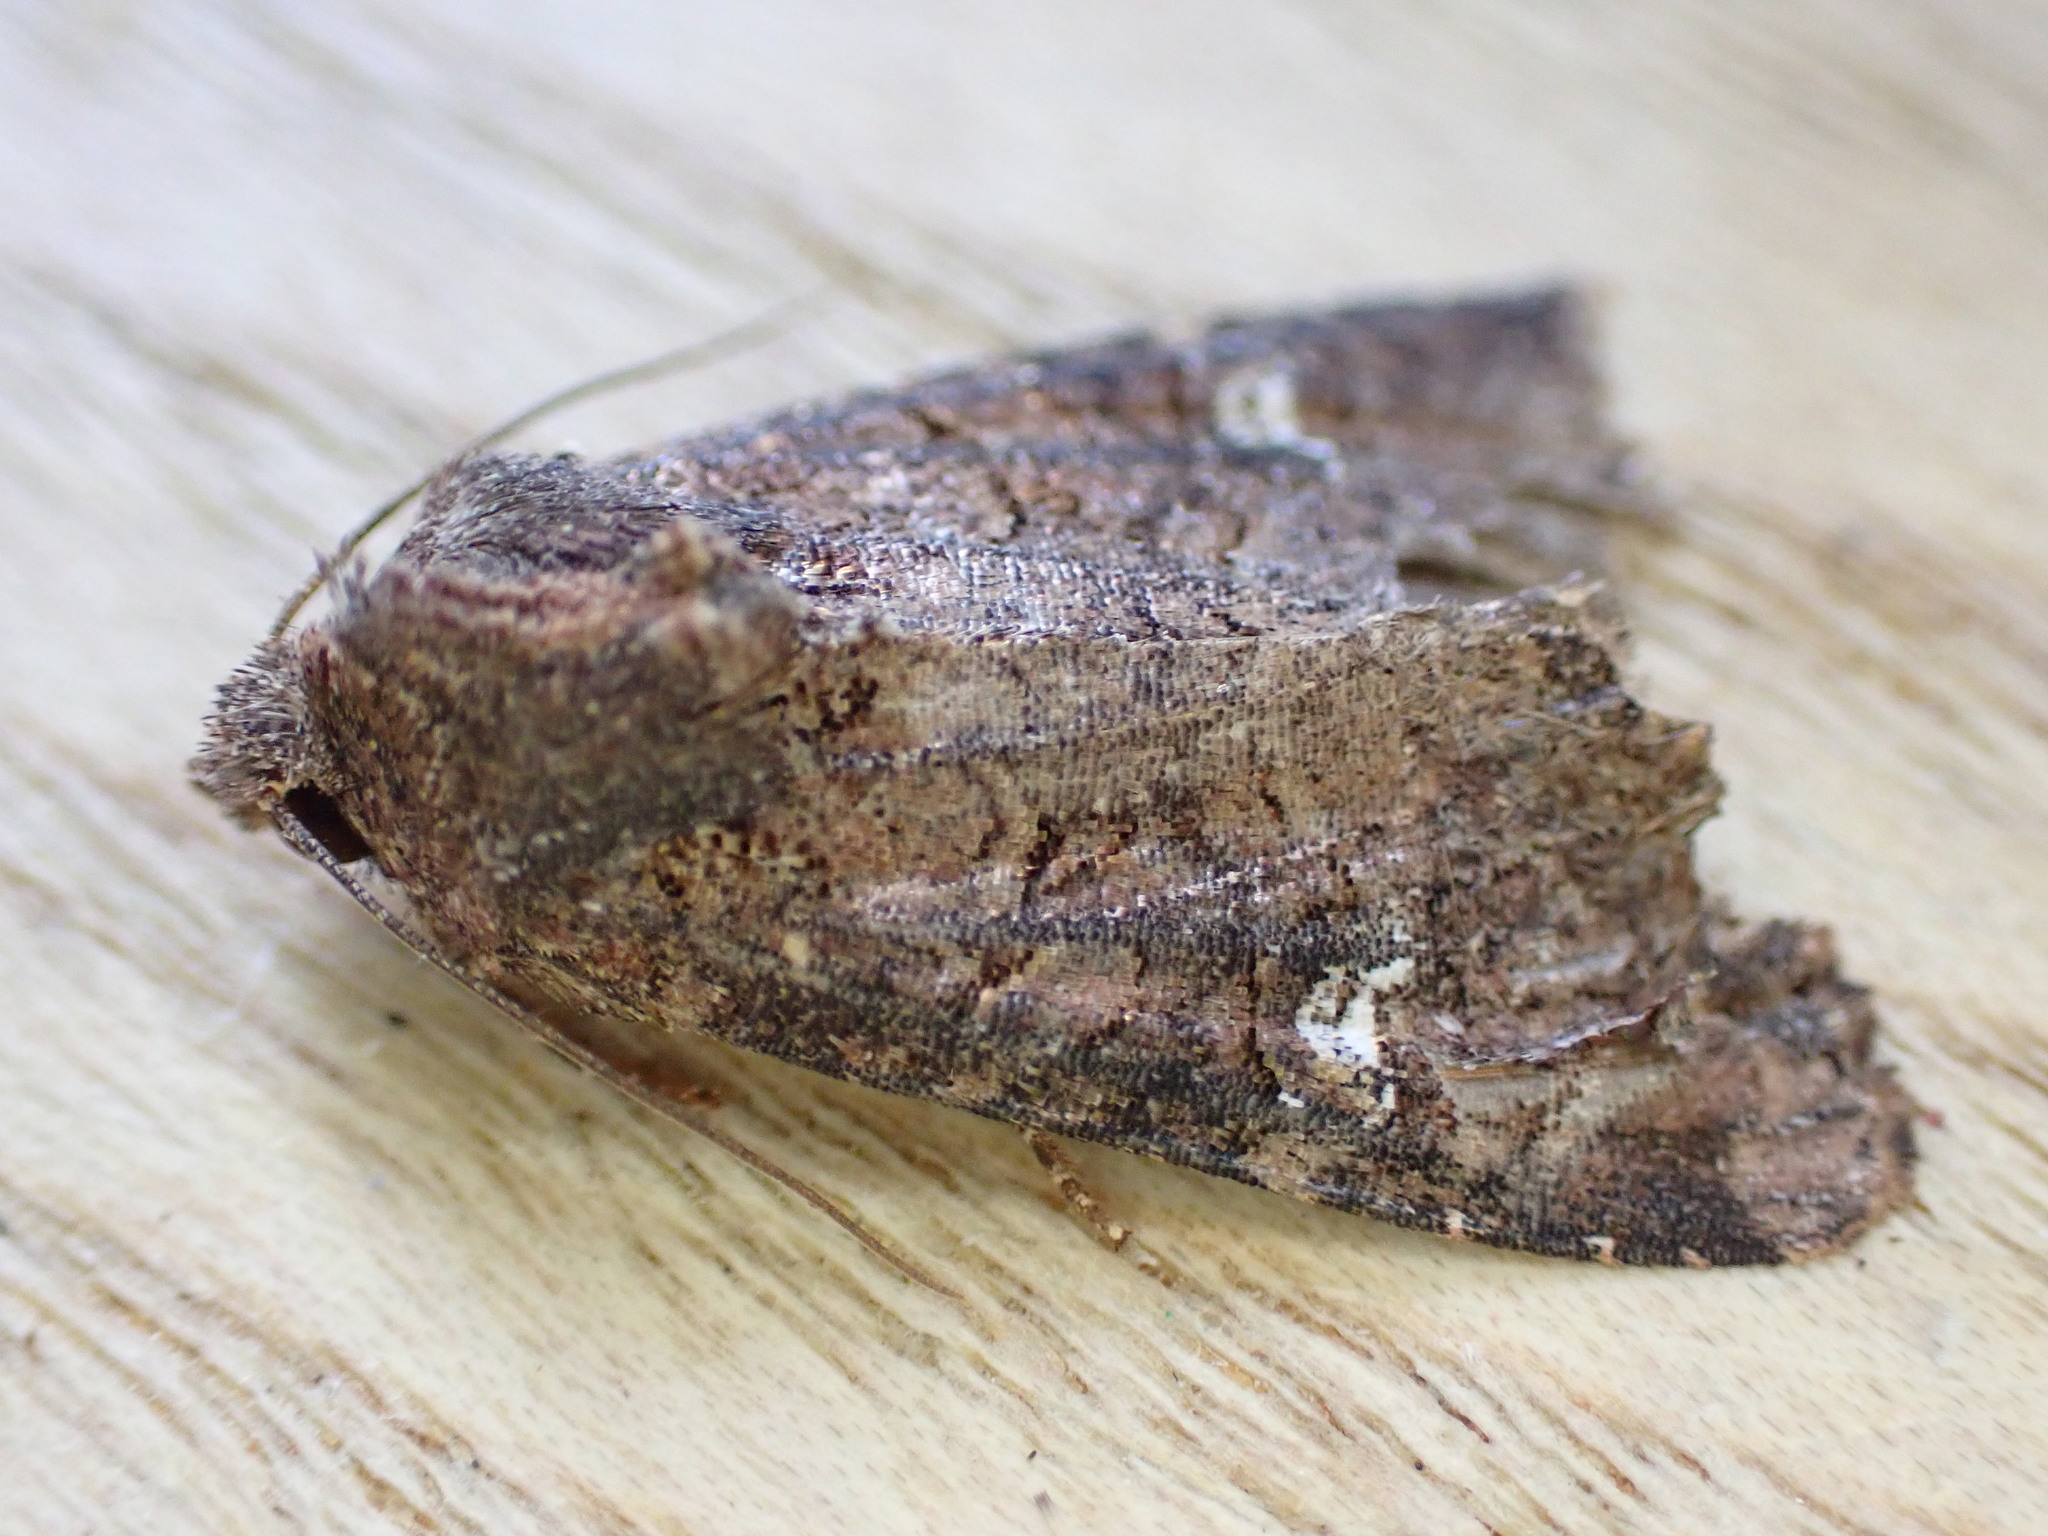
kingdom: Animalia
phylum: Arthropoda
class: Insecta
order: Lepidoptera
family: Noctuidae
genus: Mesapamea
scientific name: Mesapamea
